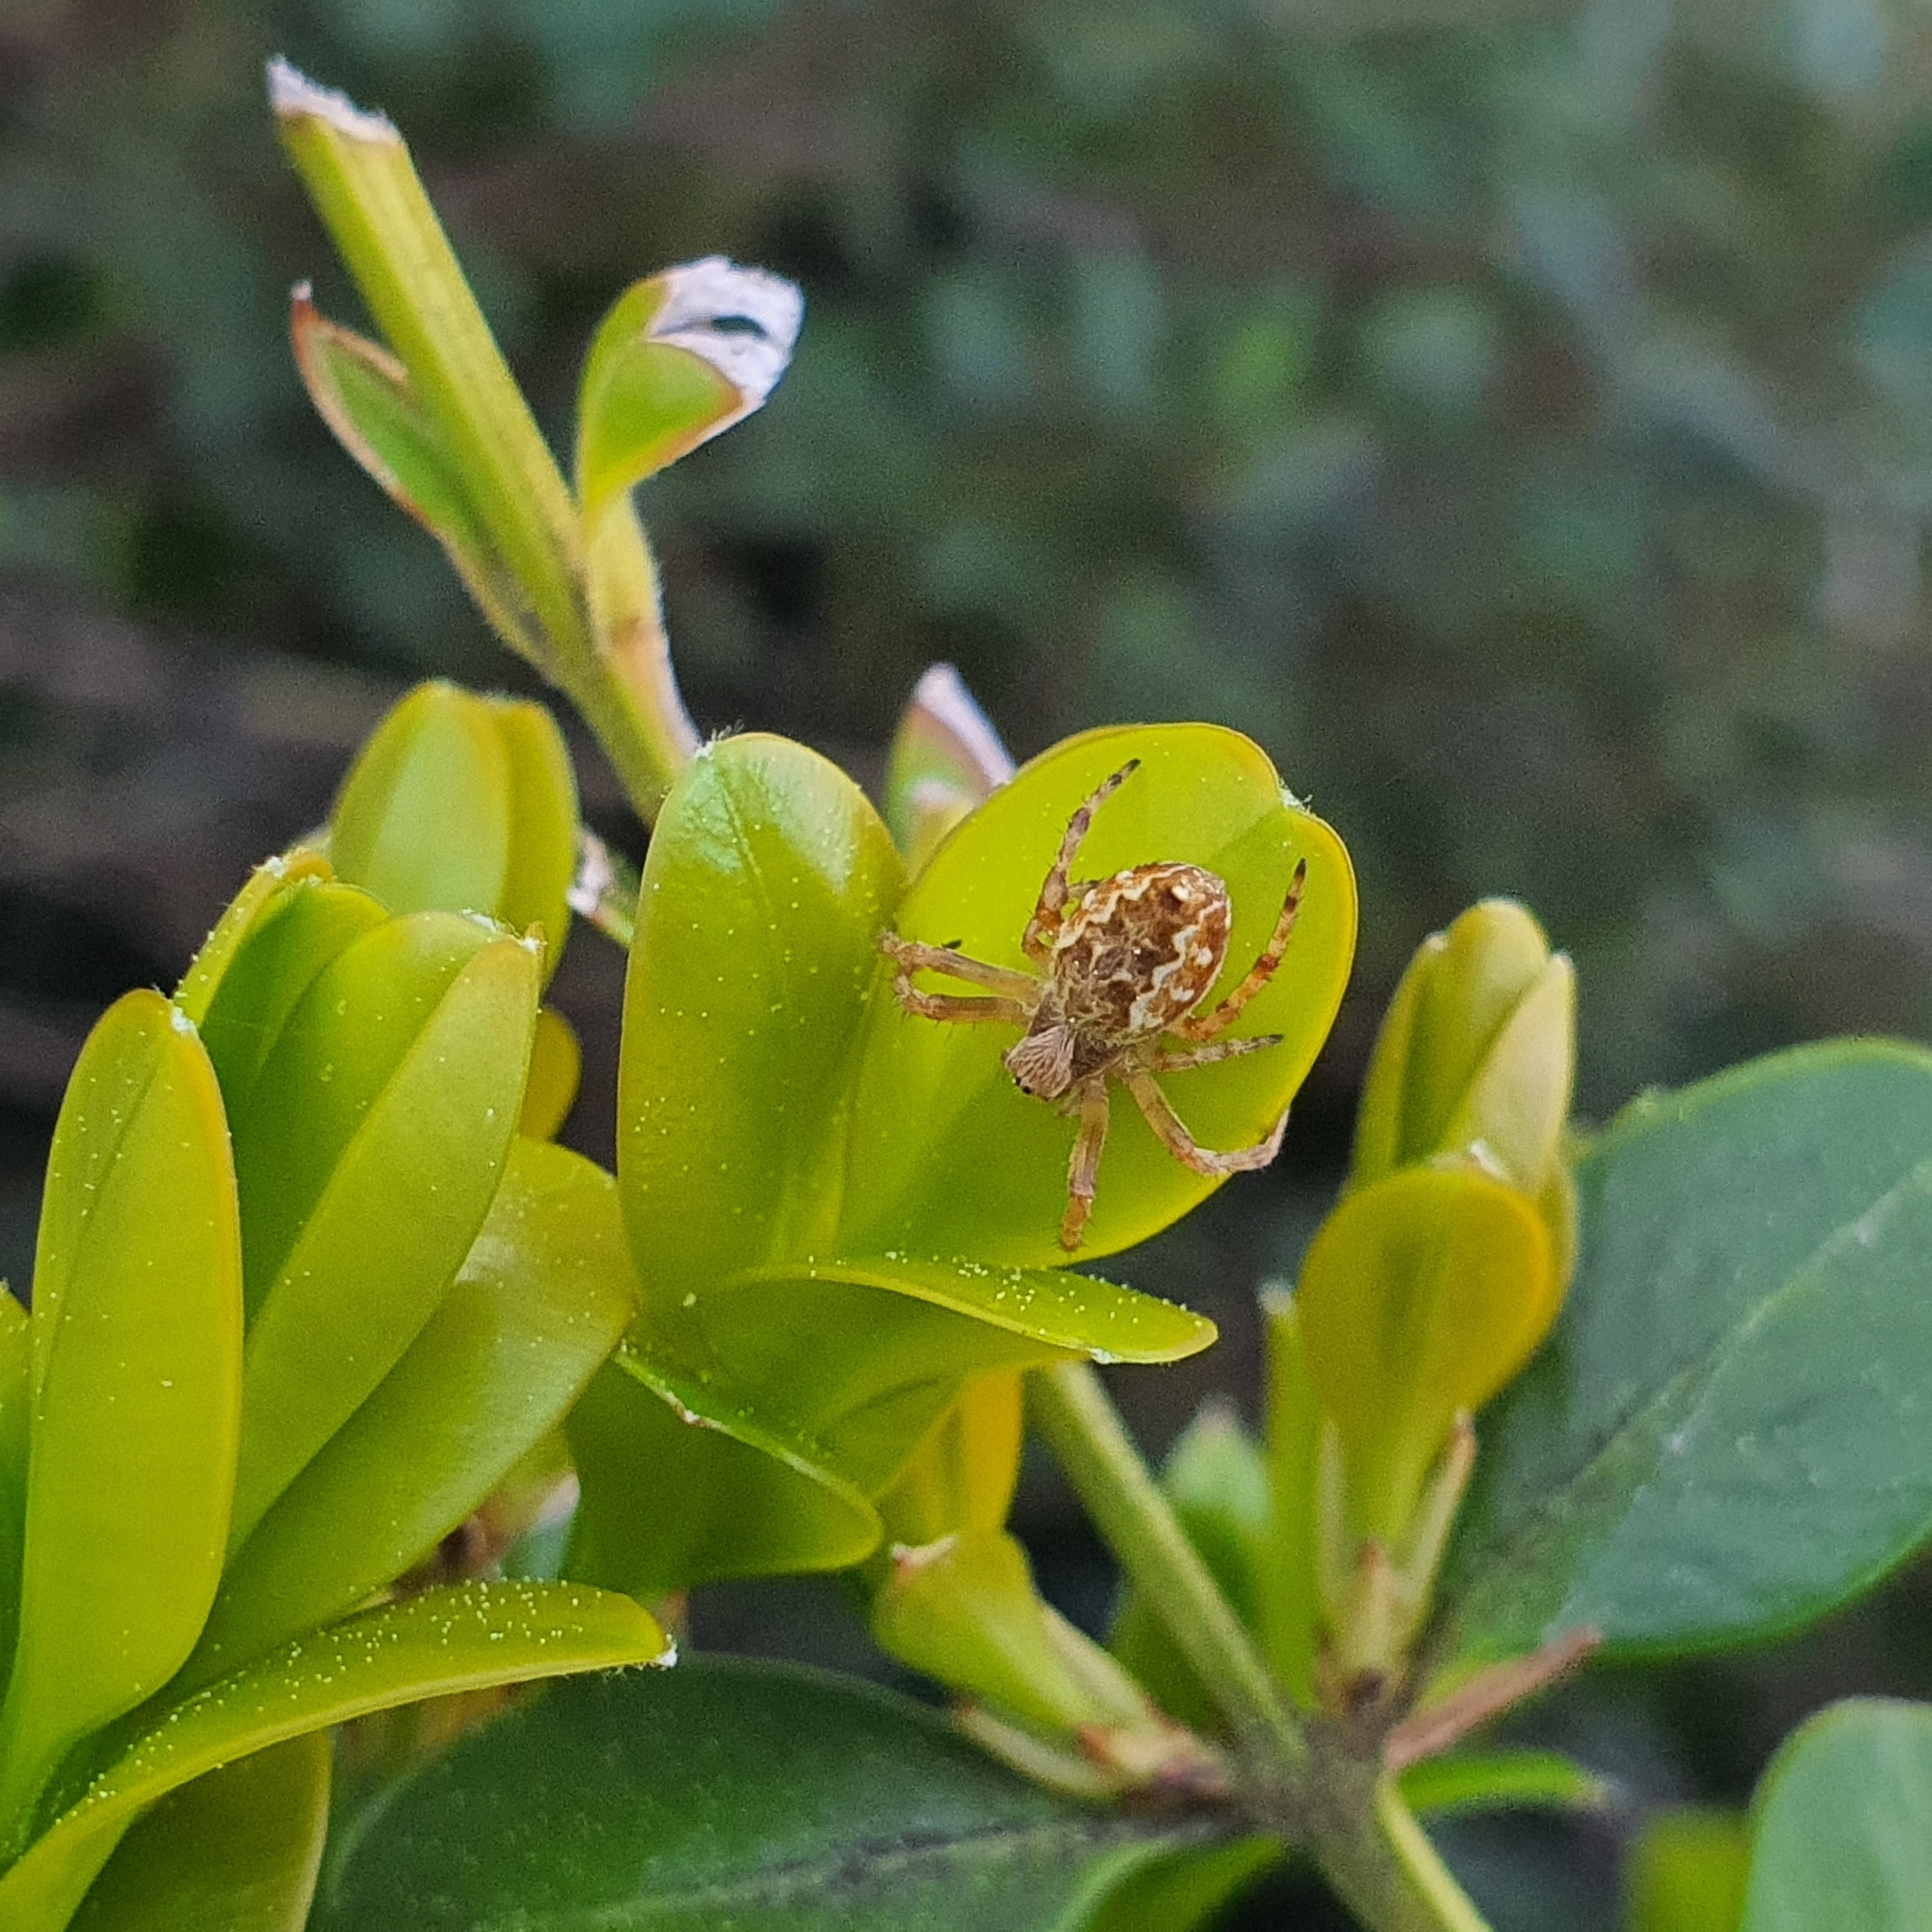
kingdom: Animalia
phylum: Arthropoda
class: Arachnida
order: Araneae
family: Araneidae
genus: Salsa
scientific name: Salsa fuliginata
